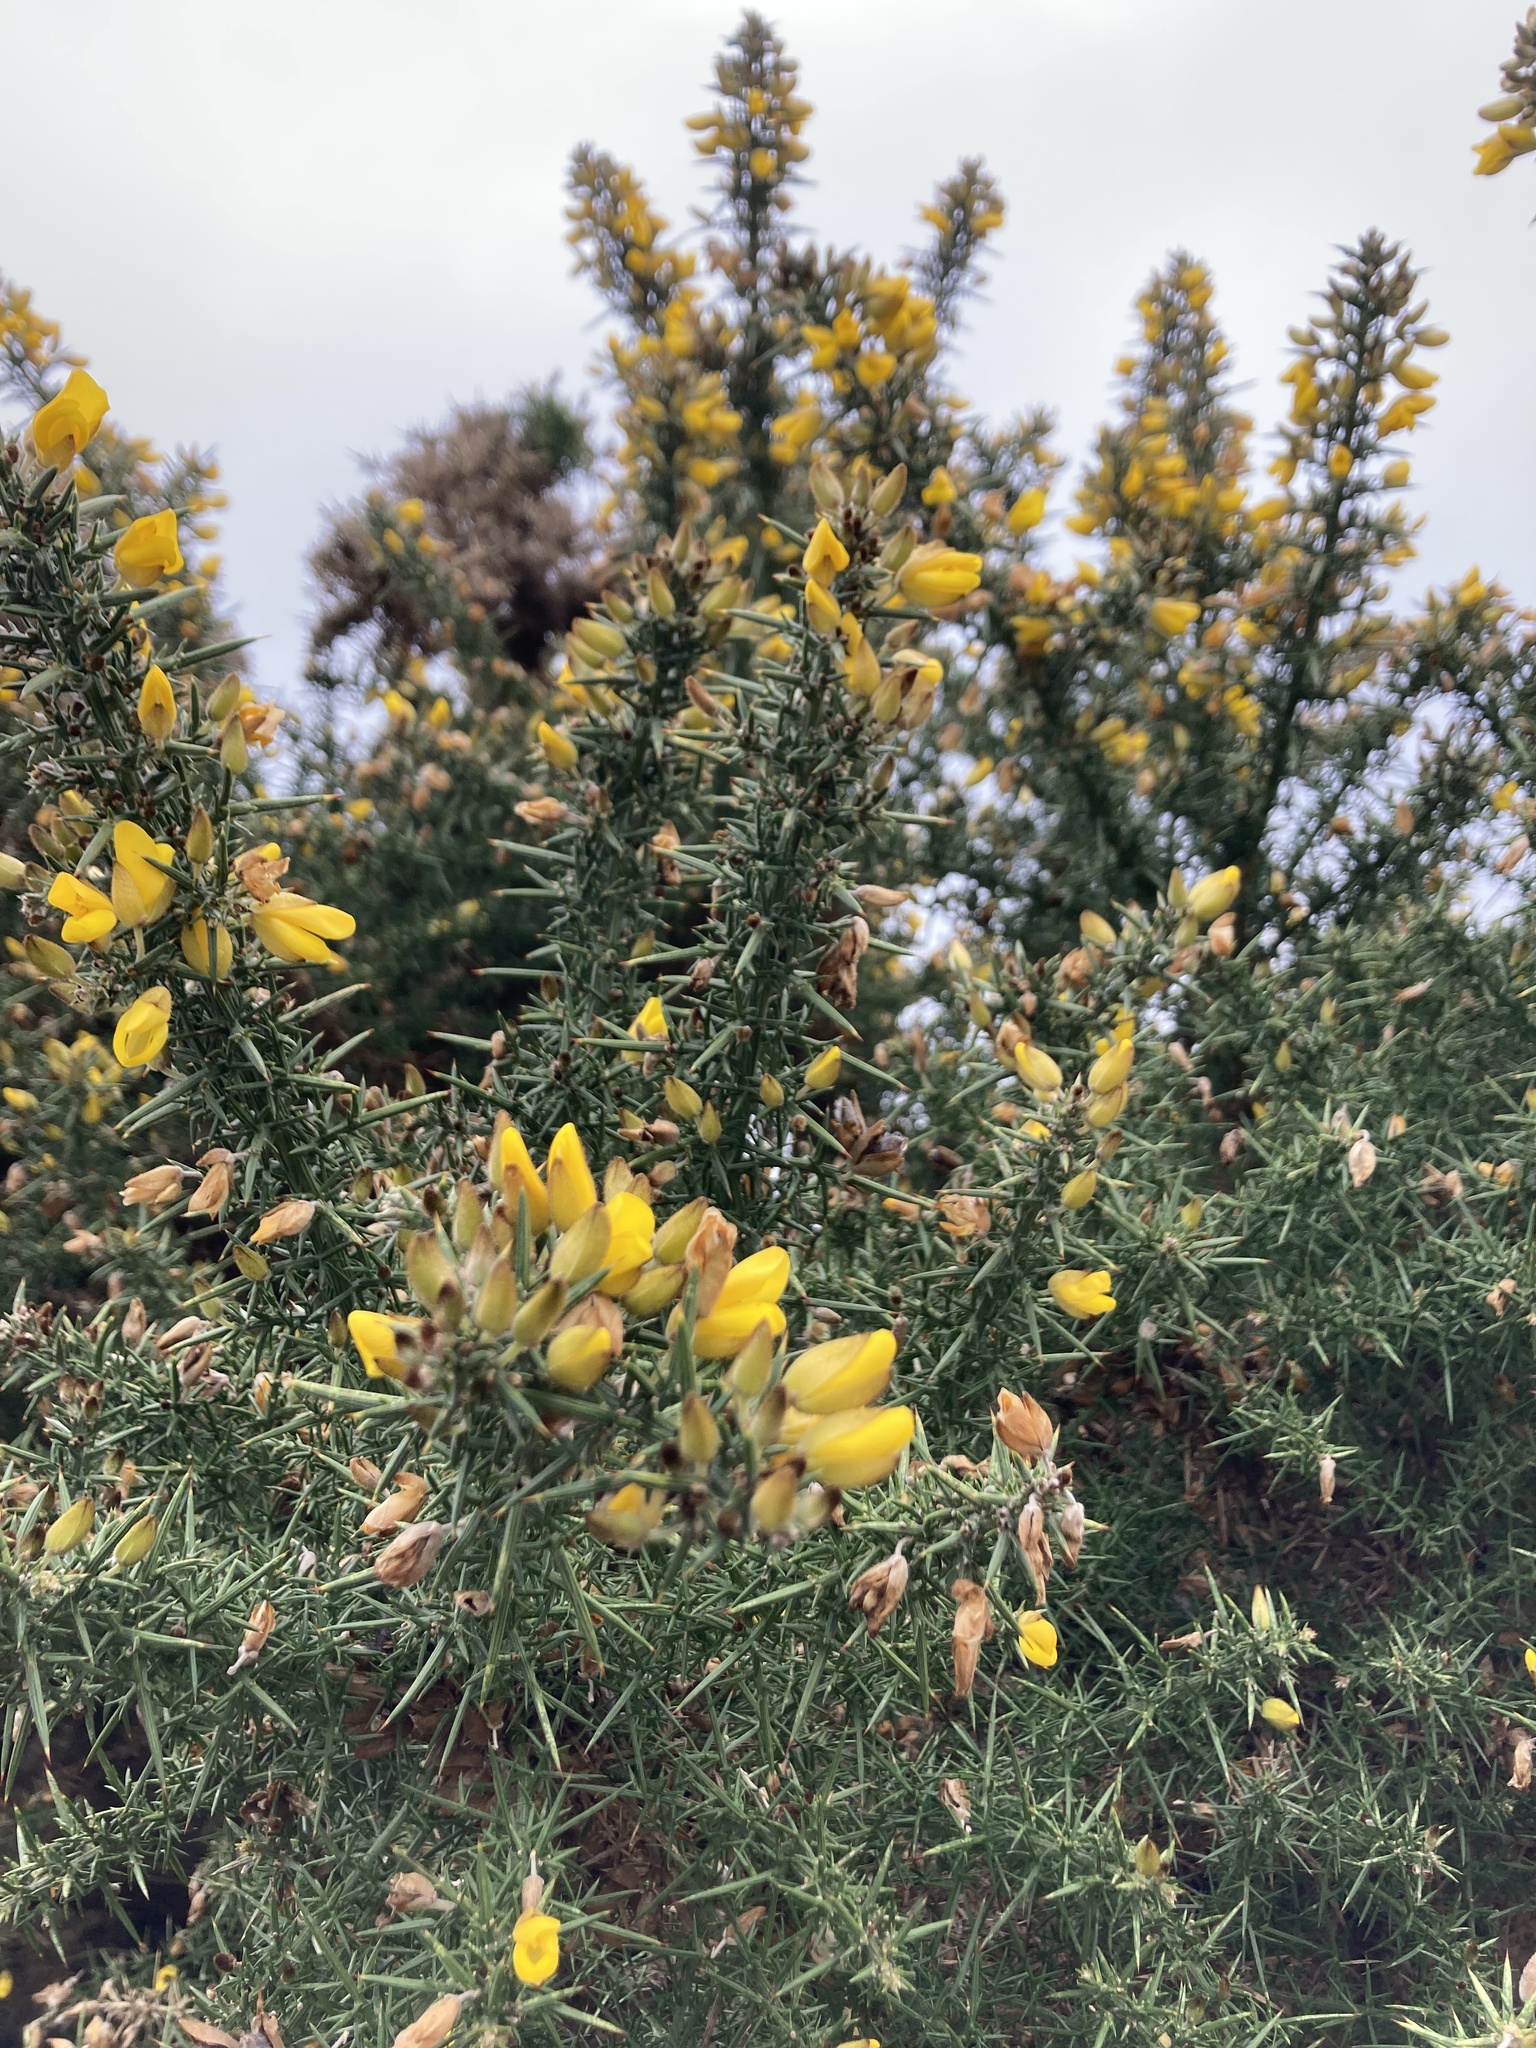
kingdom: Plantae
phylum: Tracheophyta
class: Magnoliopsida
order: Fabales
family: Fabaceae
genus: Ulex
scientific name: Ulex europaeus
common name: Common gorse
